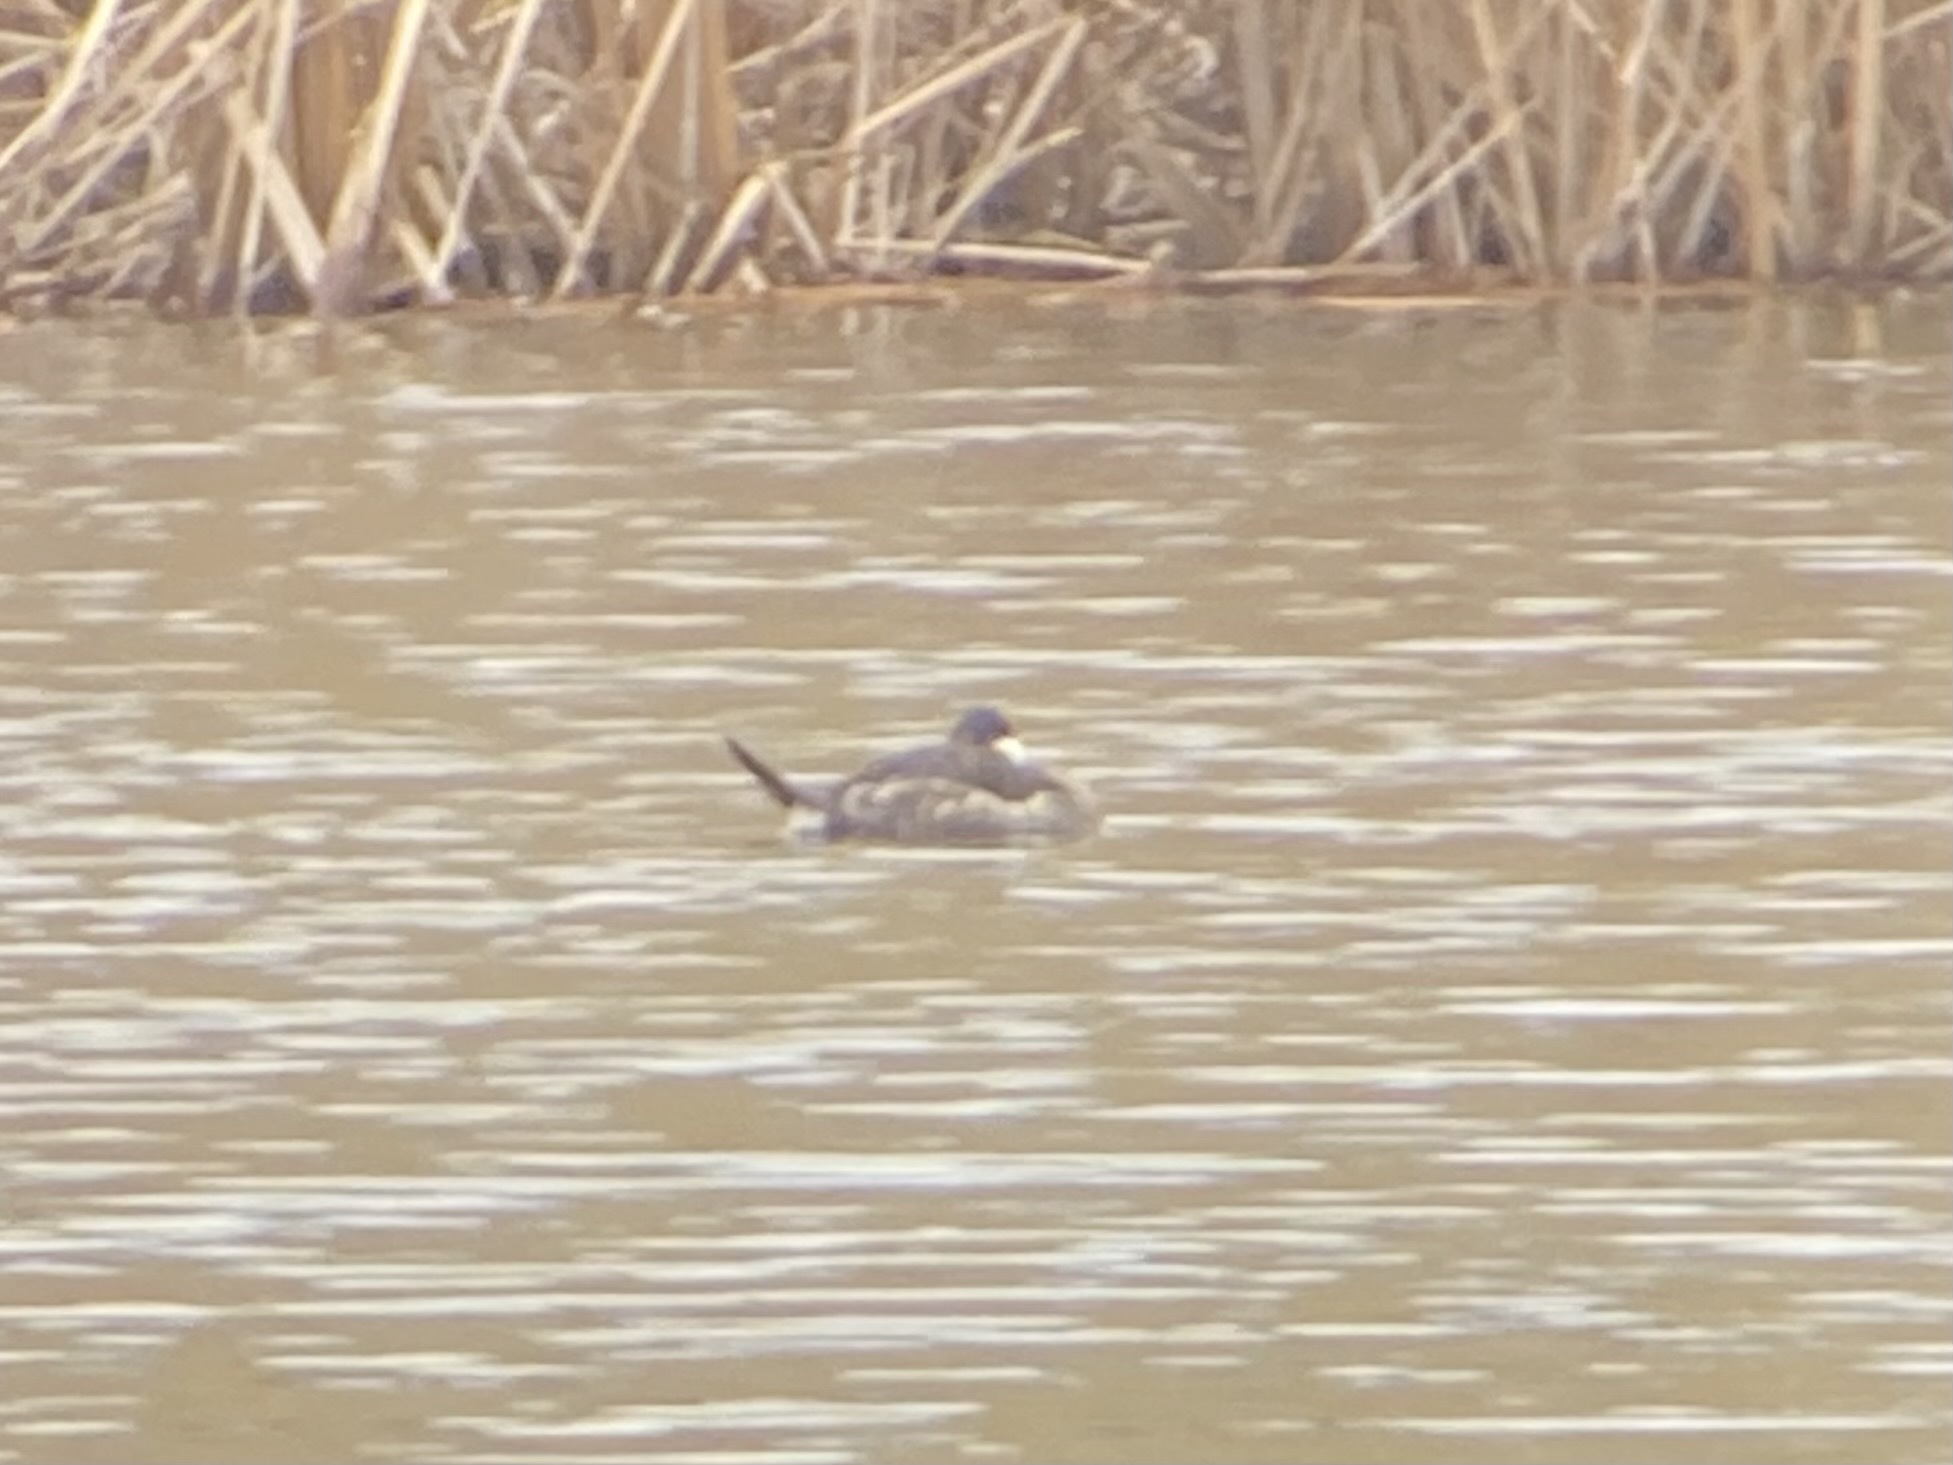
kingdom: Animalia
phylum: Chordata
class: Aves
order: Anseriformes
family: Anatidae
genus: Oxyura
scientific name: Oxyura jamaicensis
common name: Ruddy duck
